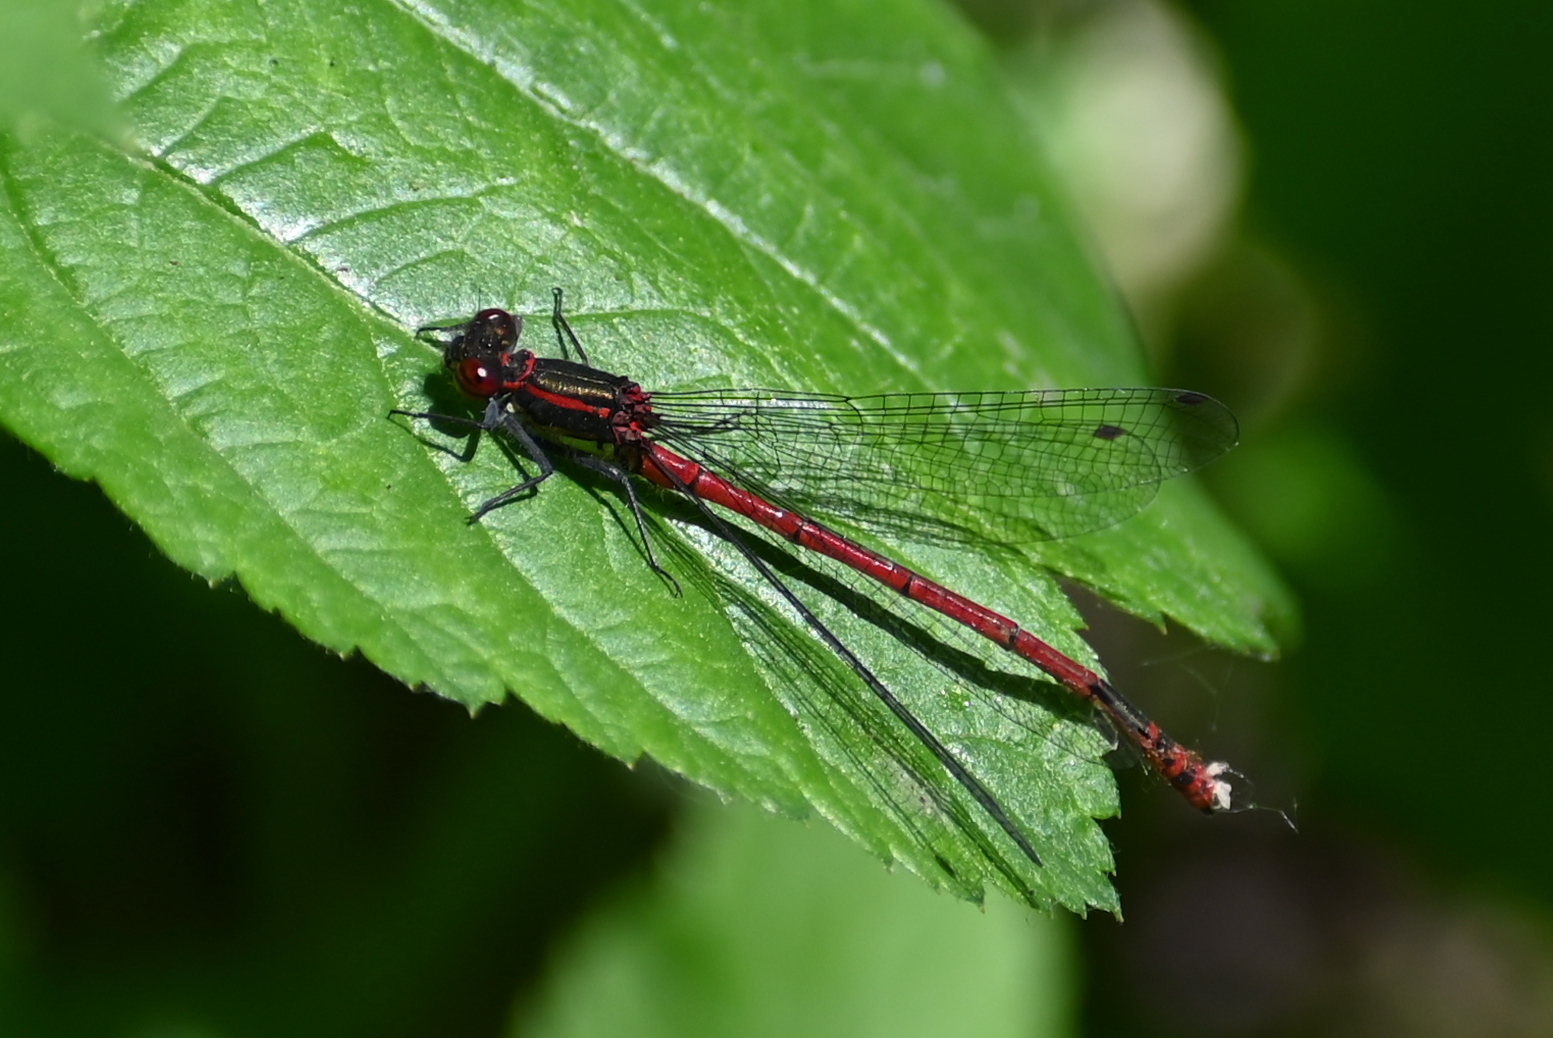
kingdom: Animalia
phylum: Arthropoda
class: Insecta
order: Odonata
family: Coenagrionidae
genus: Pyrrhosoma
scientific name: Pyrrhosoma nymphula
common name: Large red damsel
